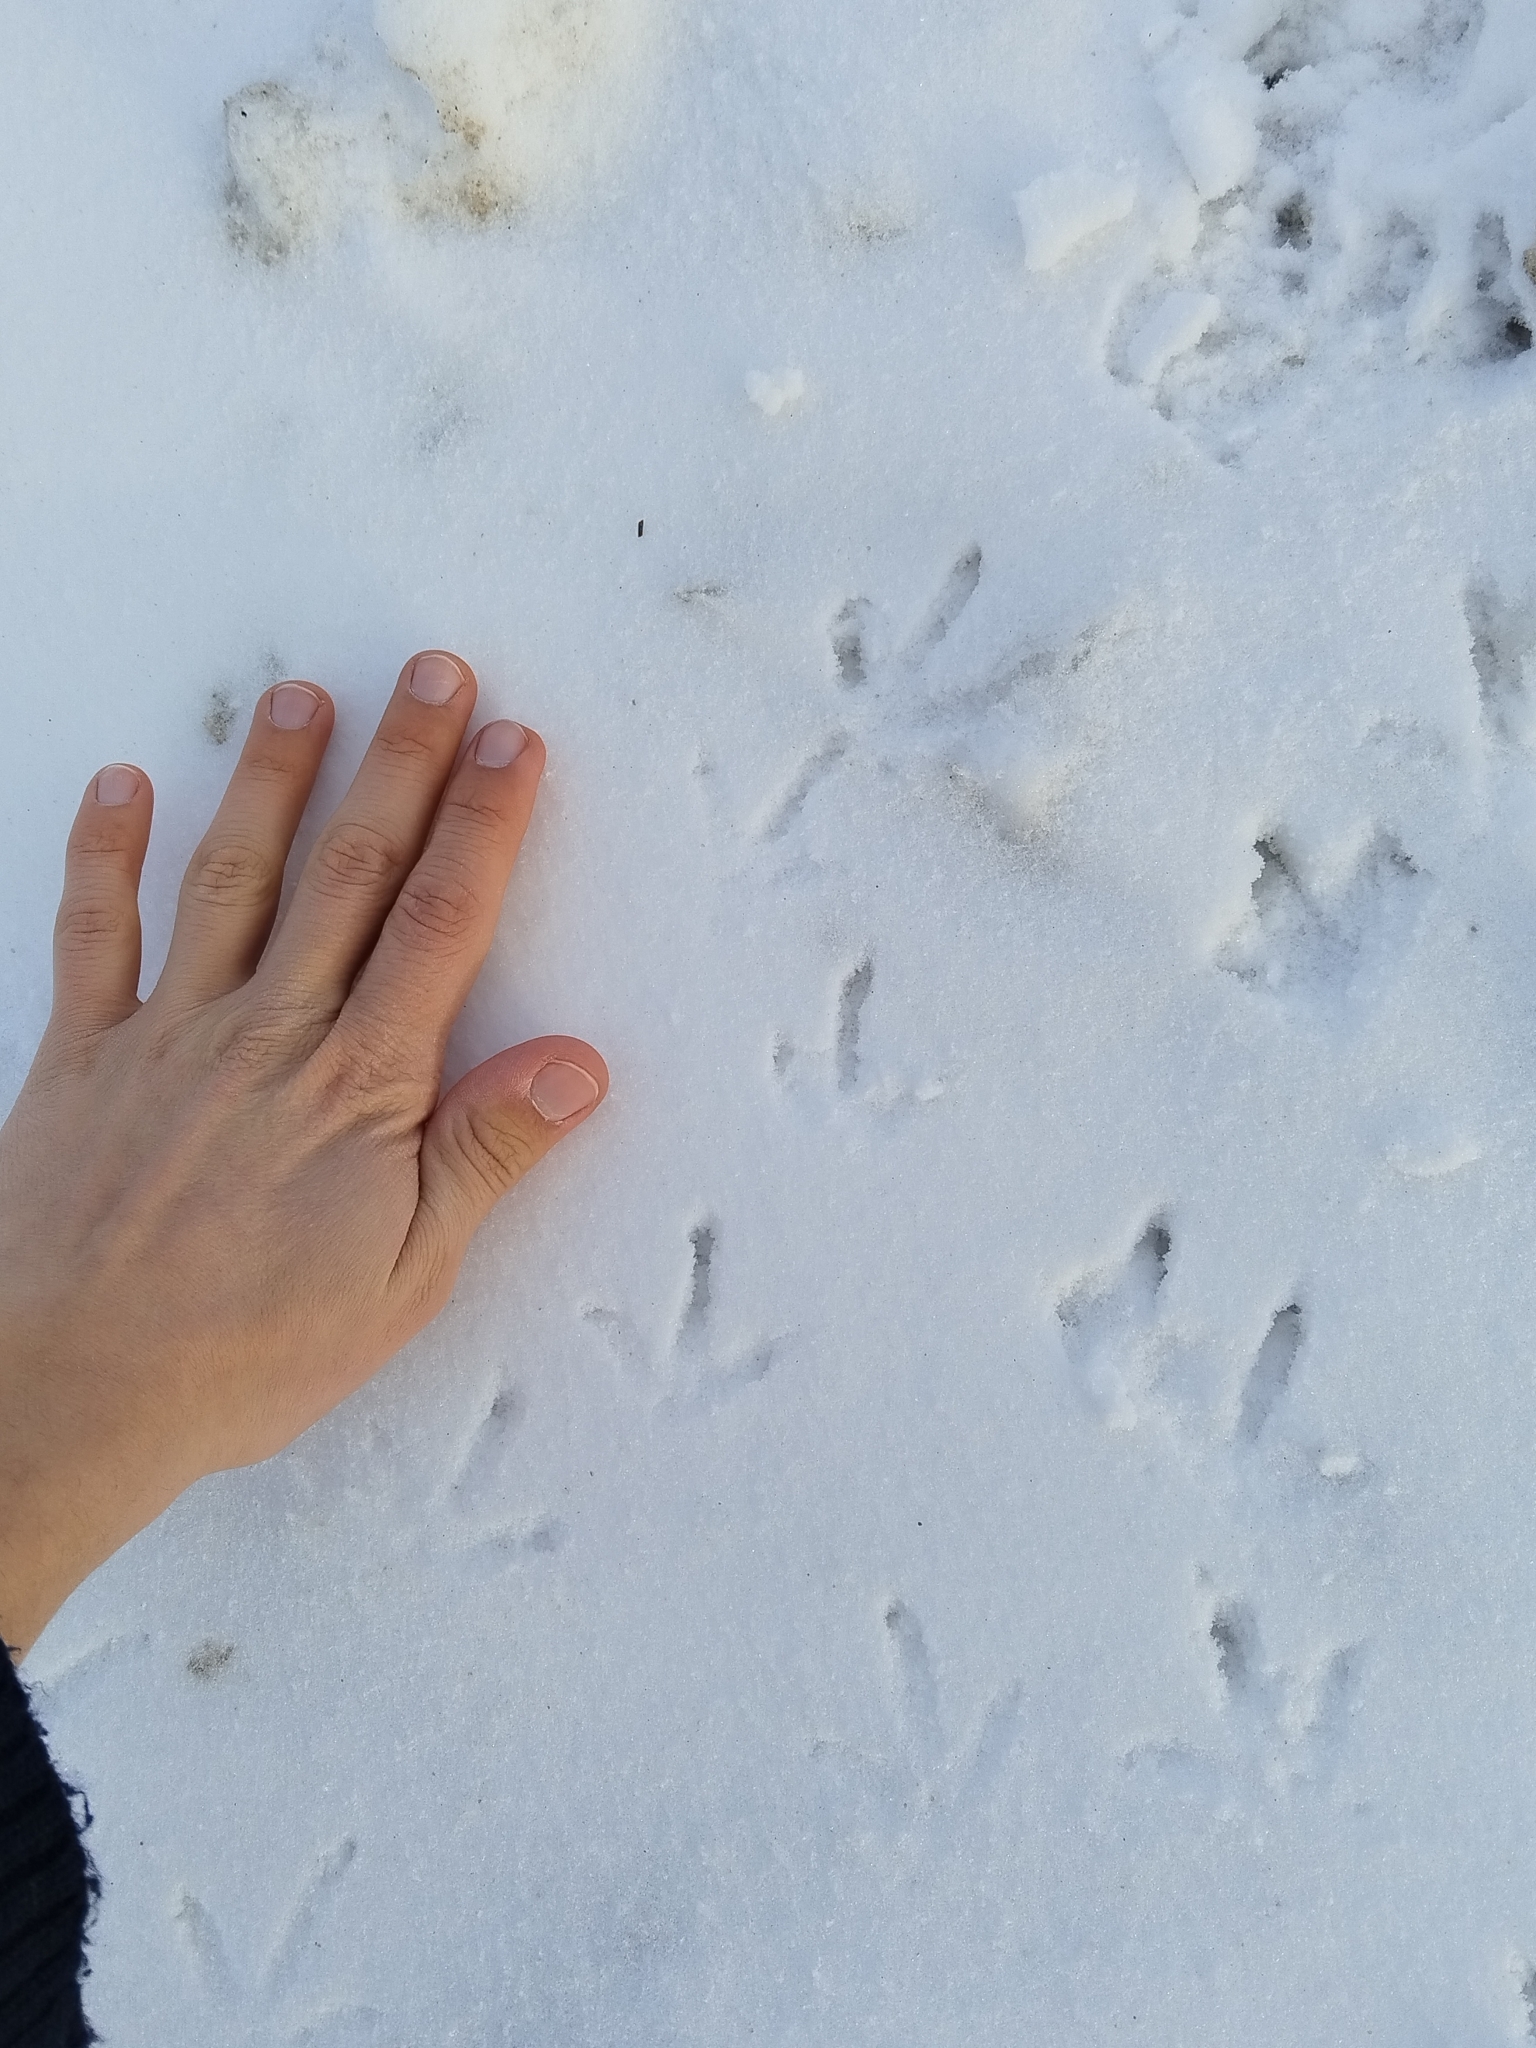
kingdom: Animalia
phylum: Chordata
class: Aves
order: Galliformes
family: Phasianidae
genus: Perdix
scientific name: Perdix perdix
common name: Grey partridge
